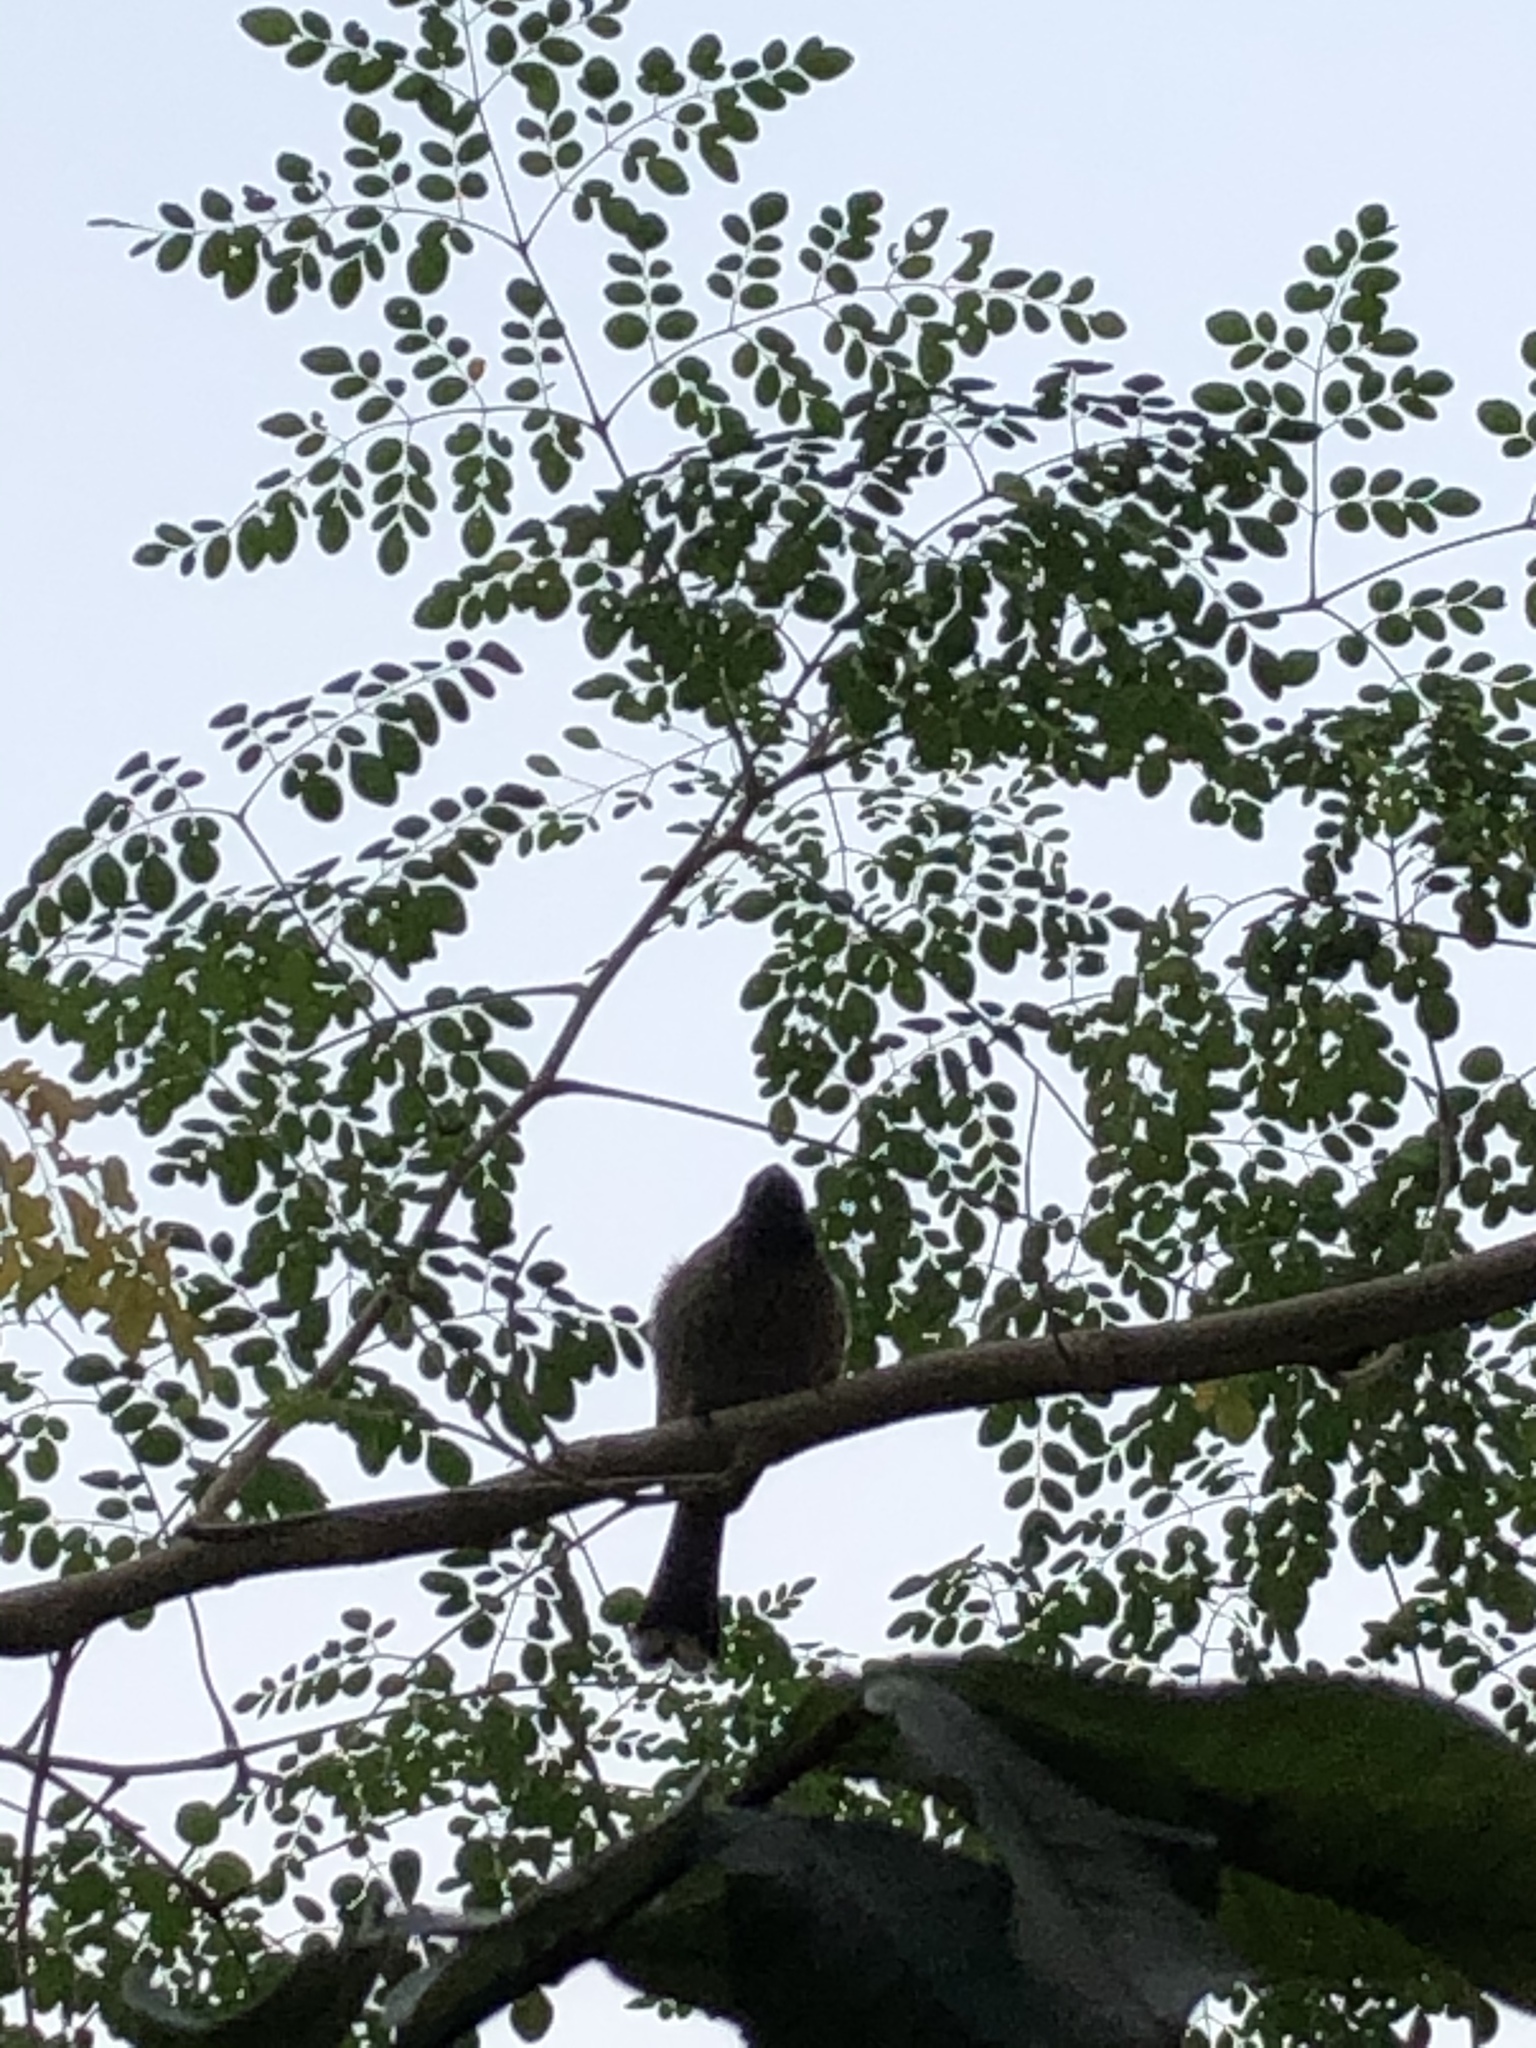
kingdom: Animalia
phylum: Chordata
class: Aves
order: Passeriformes
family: Pycnonotidae
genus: Pycnonotus
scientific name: Pycnonotus cafer
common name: Red-vented bulbul
